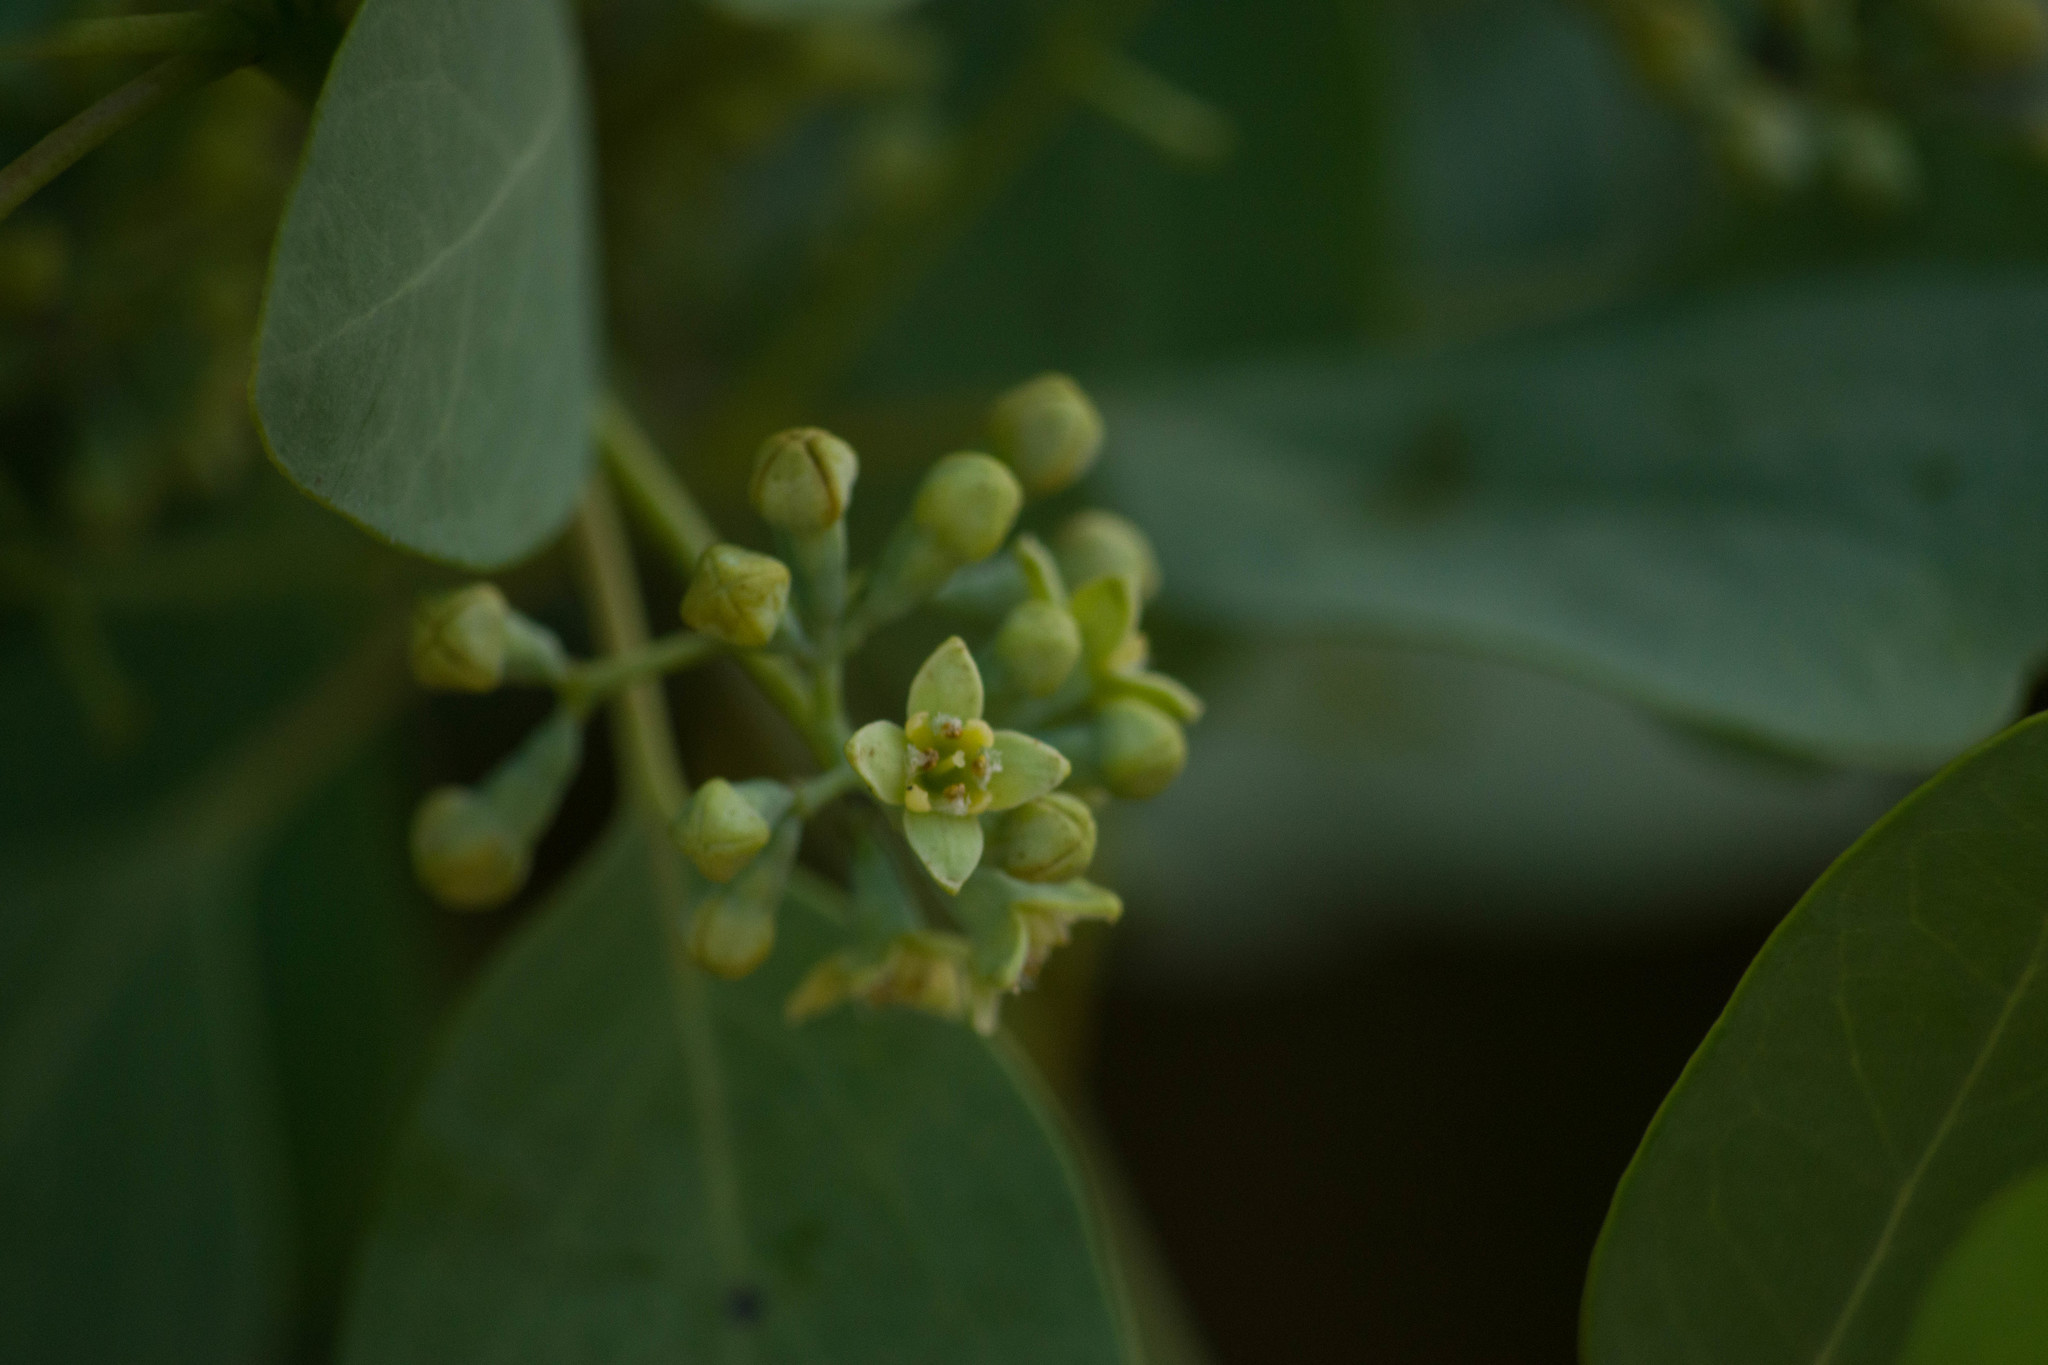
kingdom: Plantae
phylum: Tracheophyta
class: Magnoliopsida
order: Santalales
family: Santalaceae
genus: Santalum
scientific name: Santalum ellipticum
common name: Coast sandalwood
